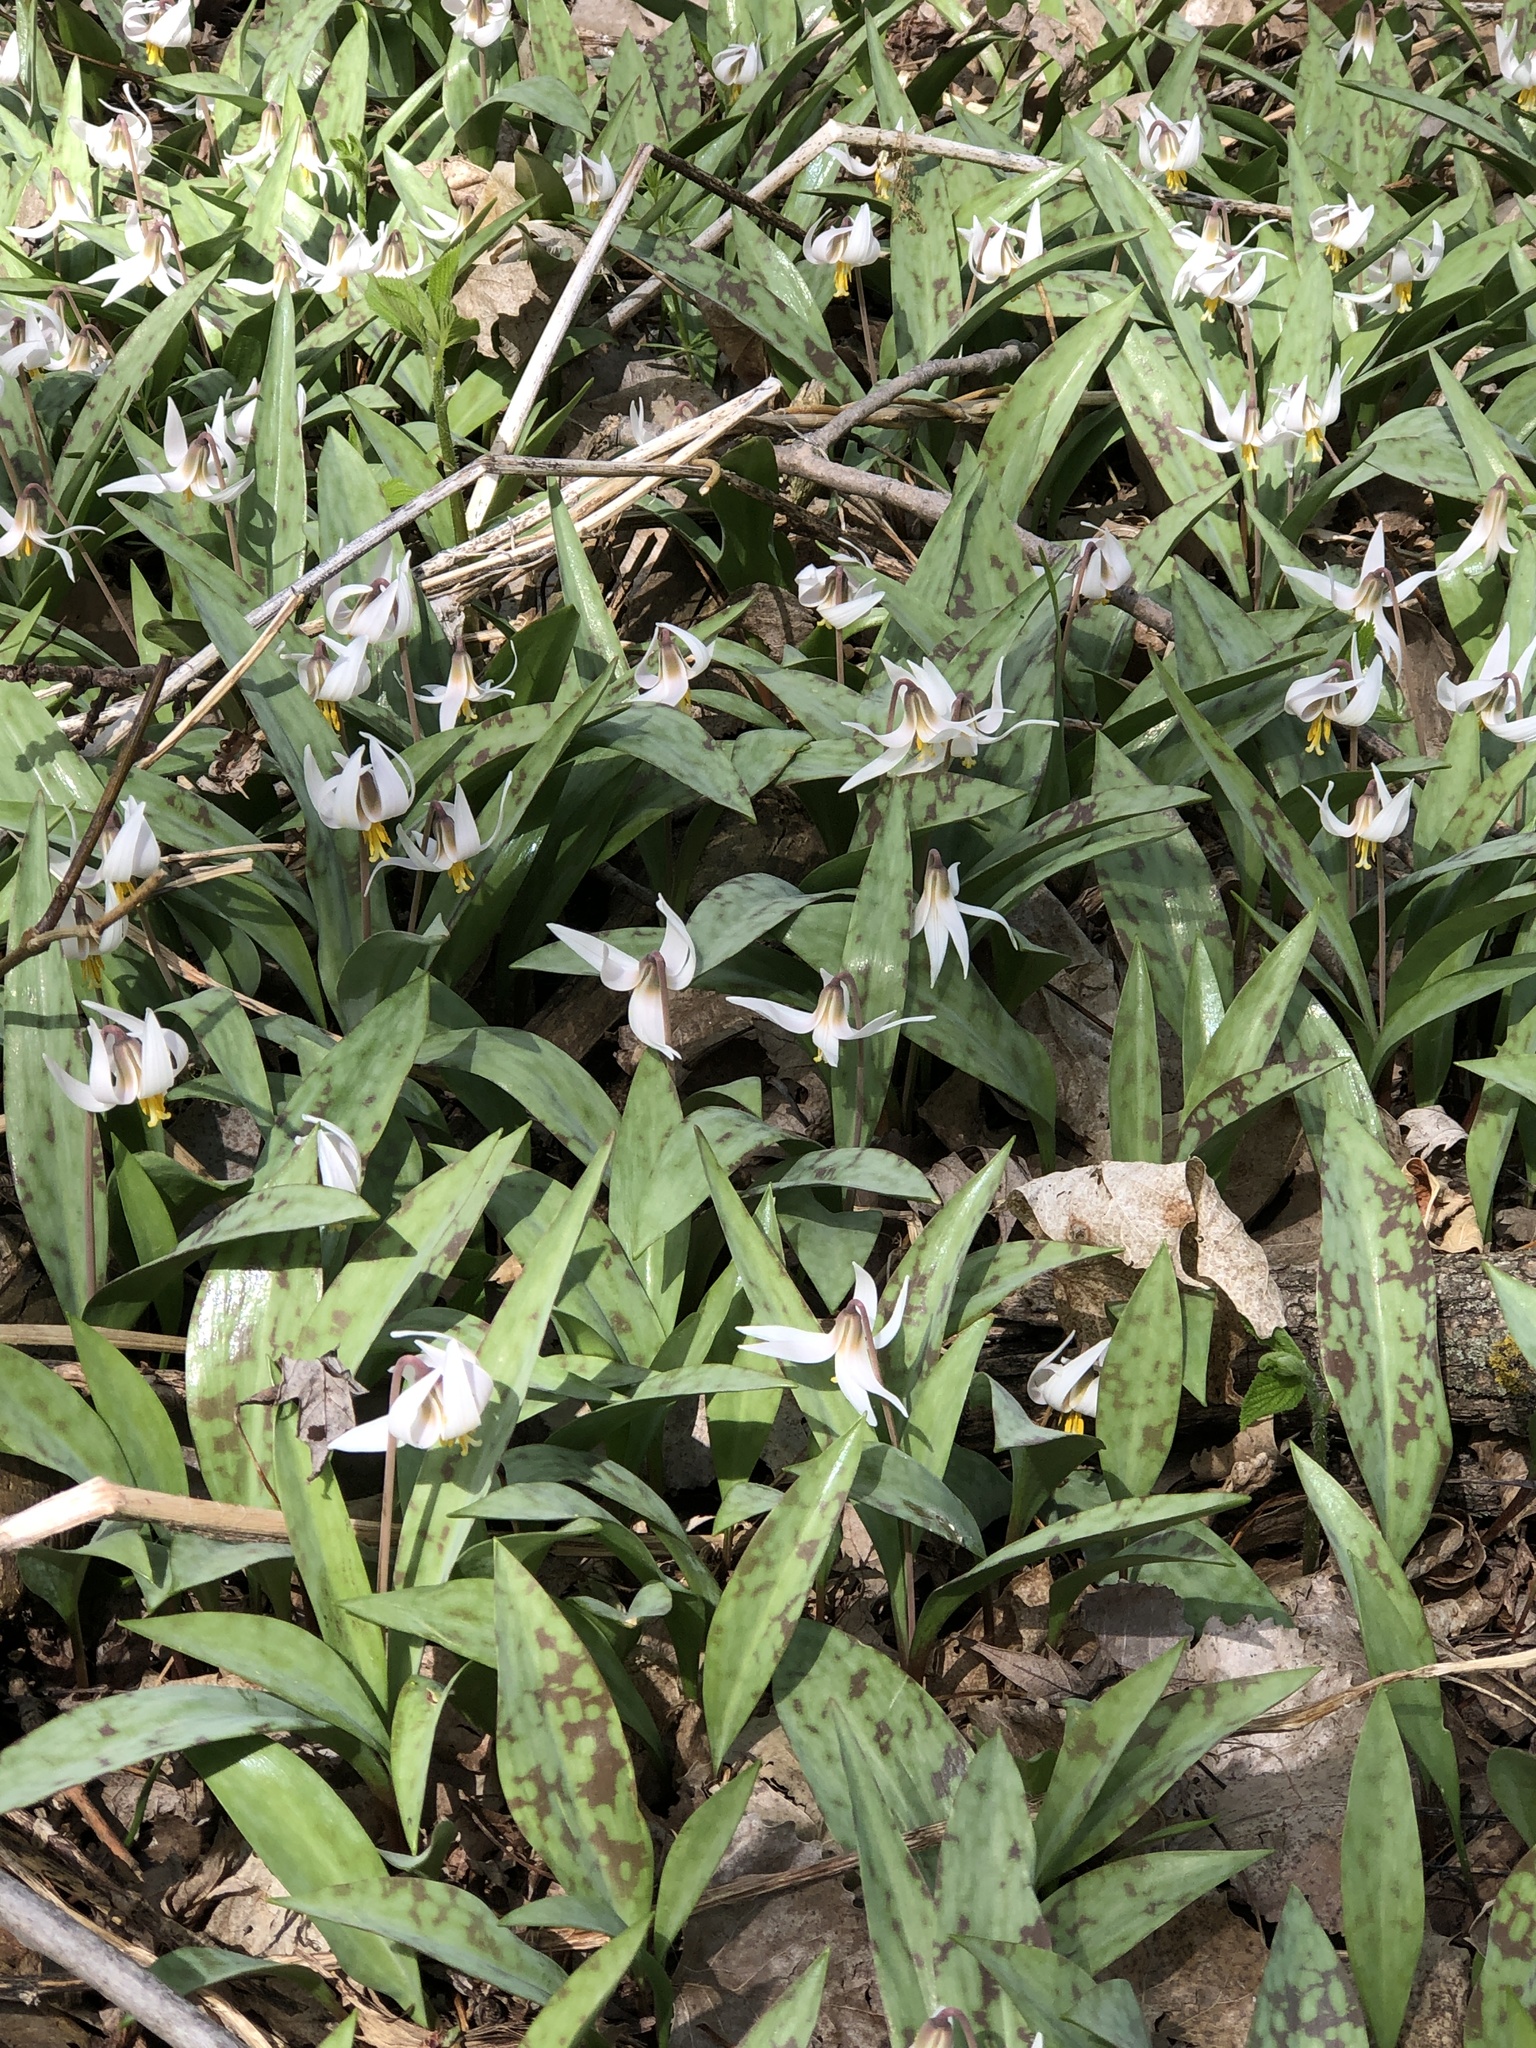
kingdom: Plantae
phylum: Tracheophyta
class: Liliopsida
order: Liliales
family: Liliaceae
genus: Erythronium
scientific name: Erythronium albidum
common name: White trout-lily
